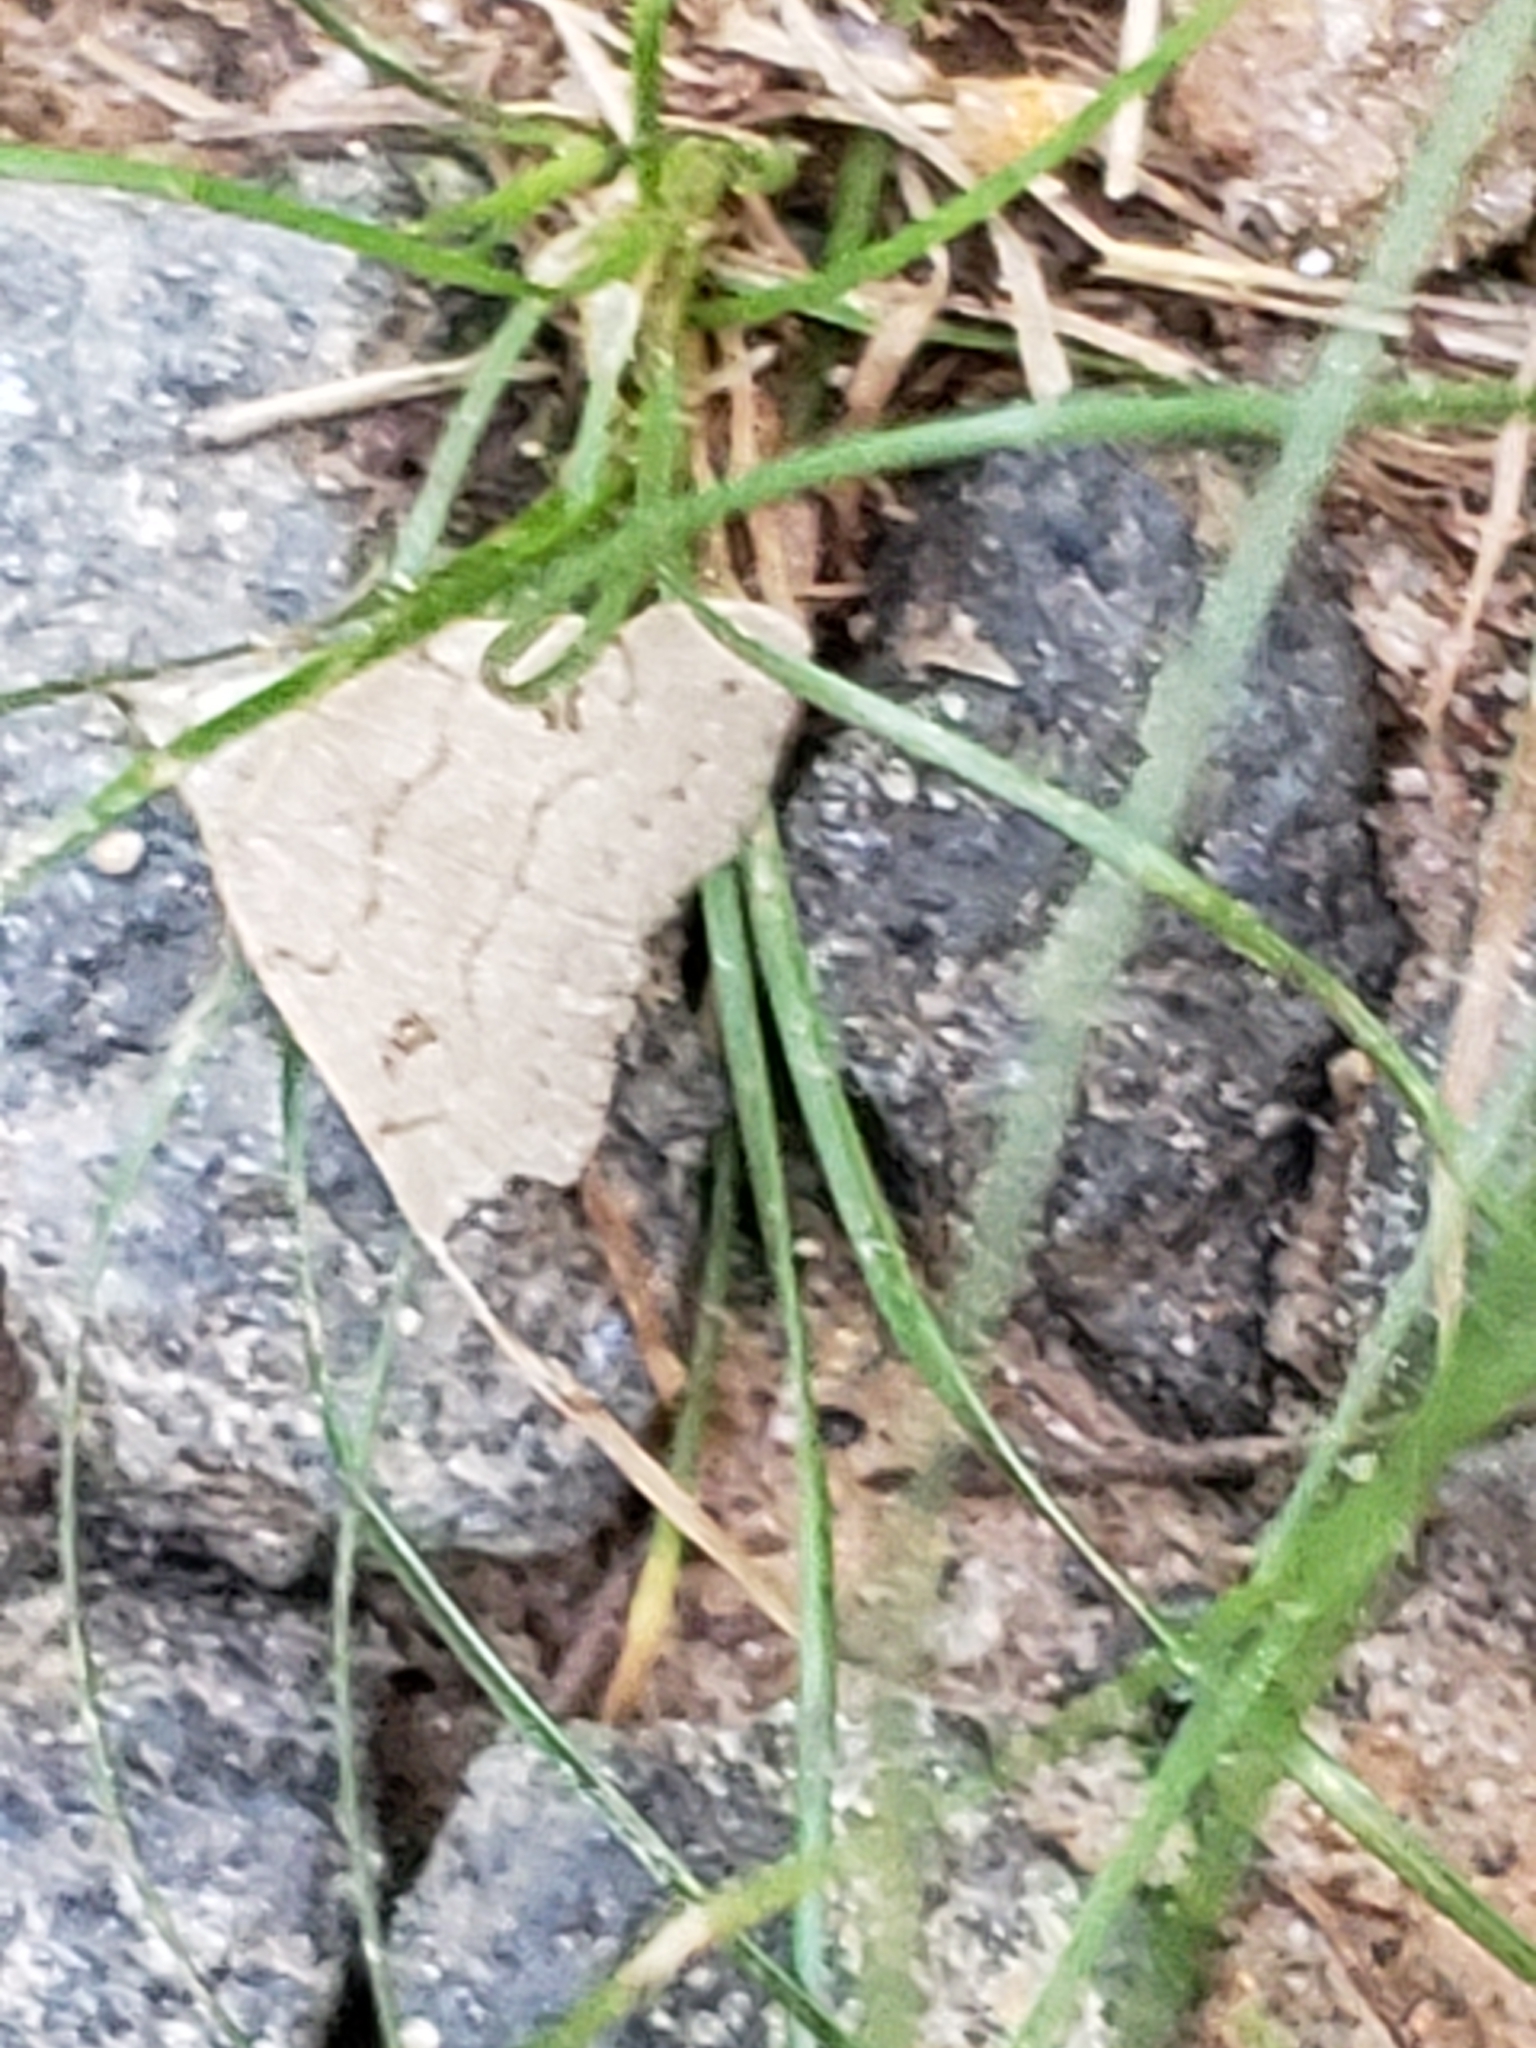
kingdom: Animalia
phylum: Arthropoda
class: Insecta
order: Lepidoptera
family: Erebidae
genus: Macrochilo
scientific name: Macrochilo morbidalis
